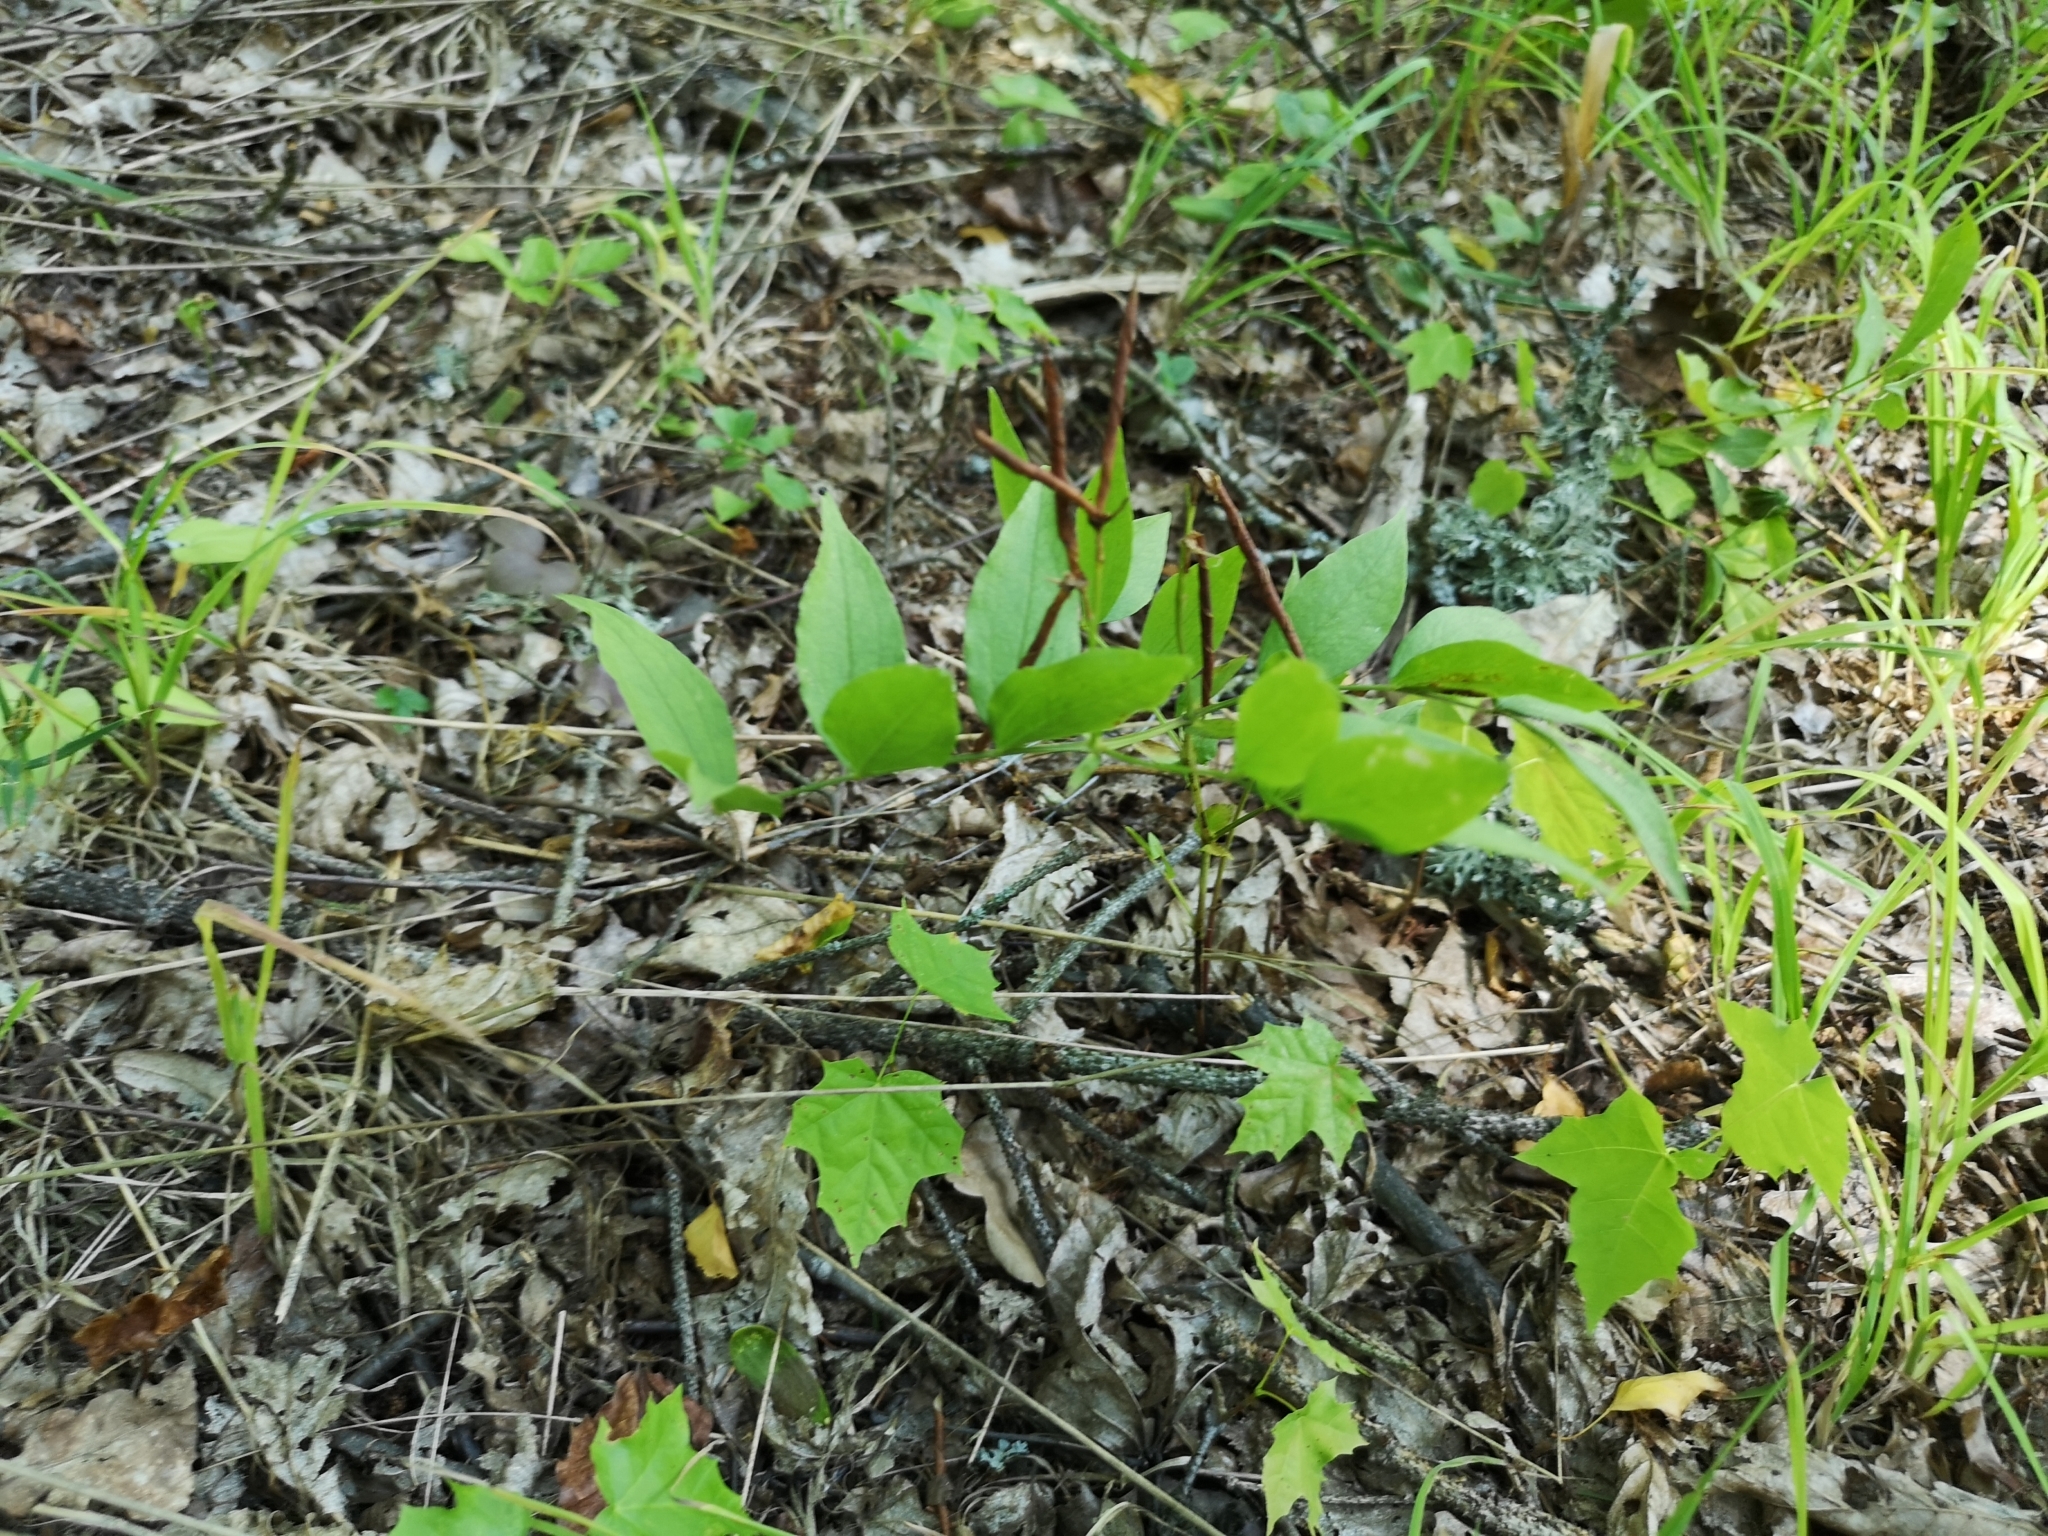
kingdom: Plantae
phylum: Tracheophyta
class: Magnoliopsida
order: Fabales
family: Fabaceae
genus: Lathyrus
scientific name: Lathyrus vernus
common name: Spring pea
